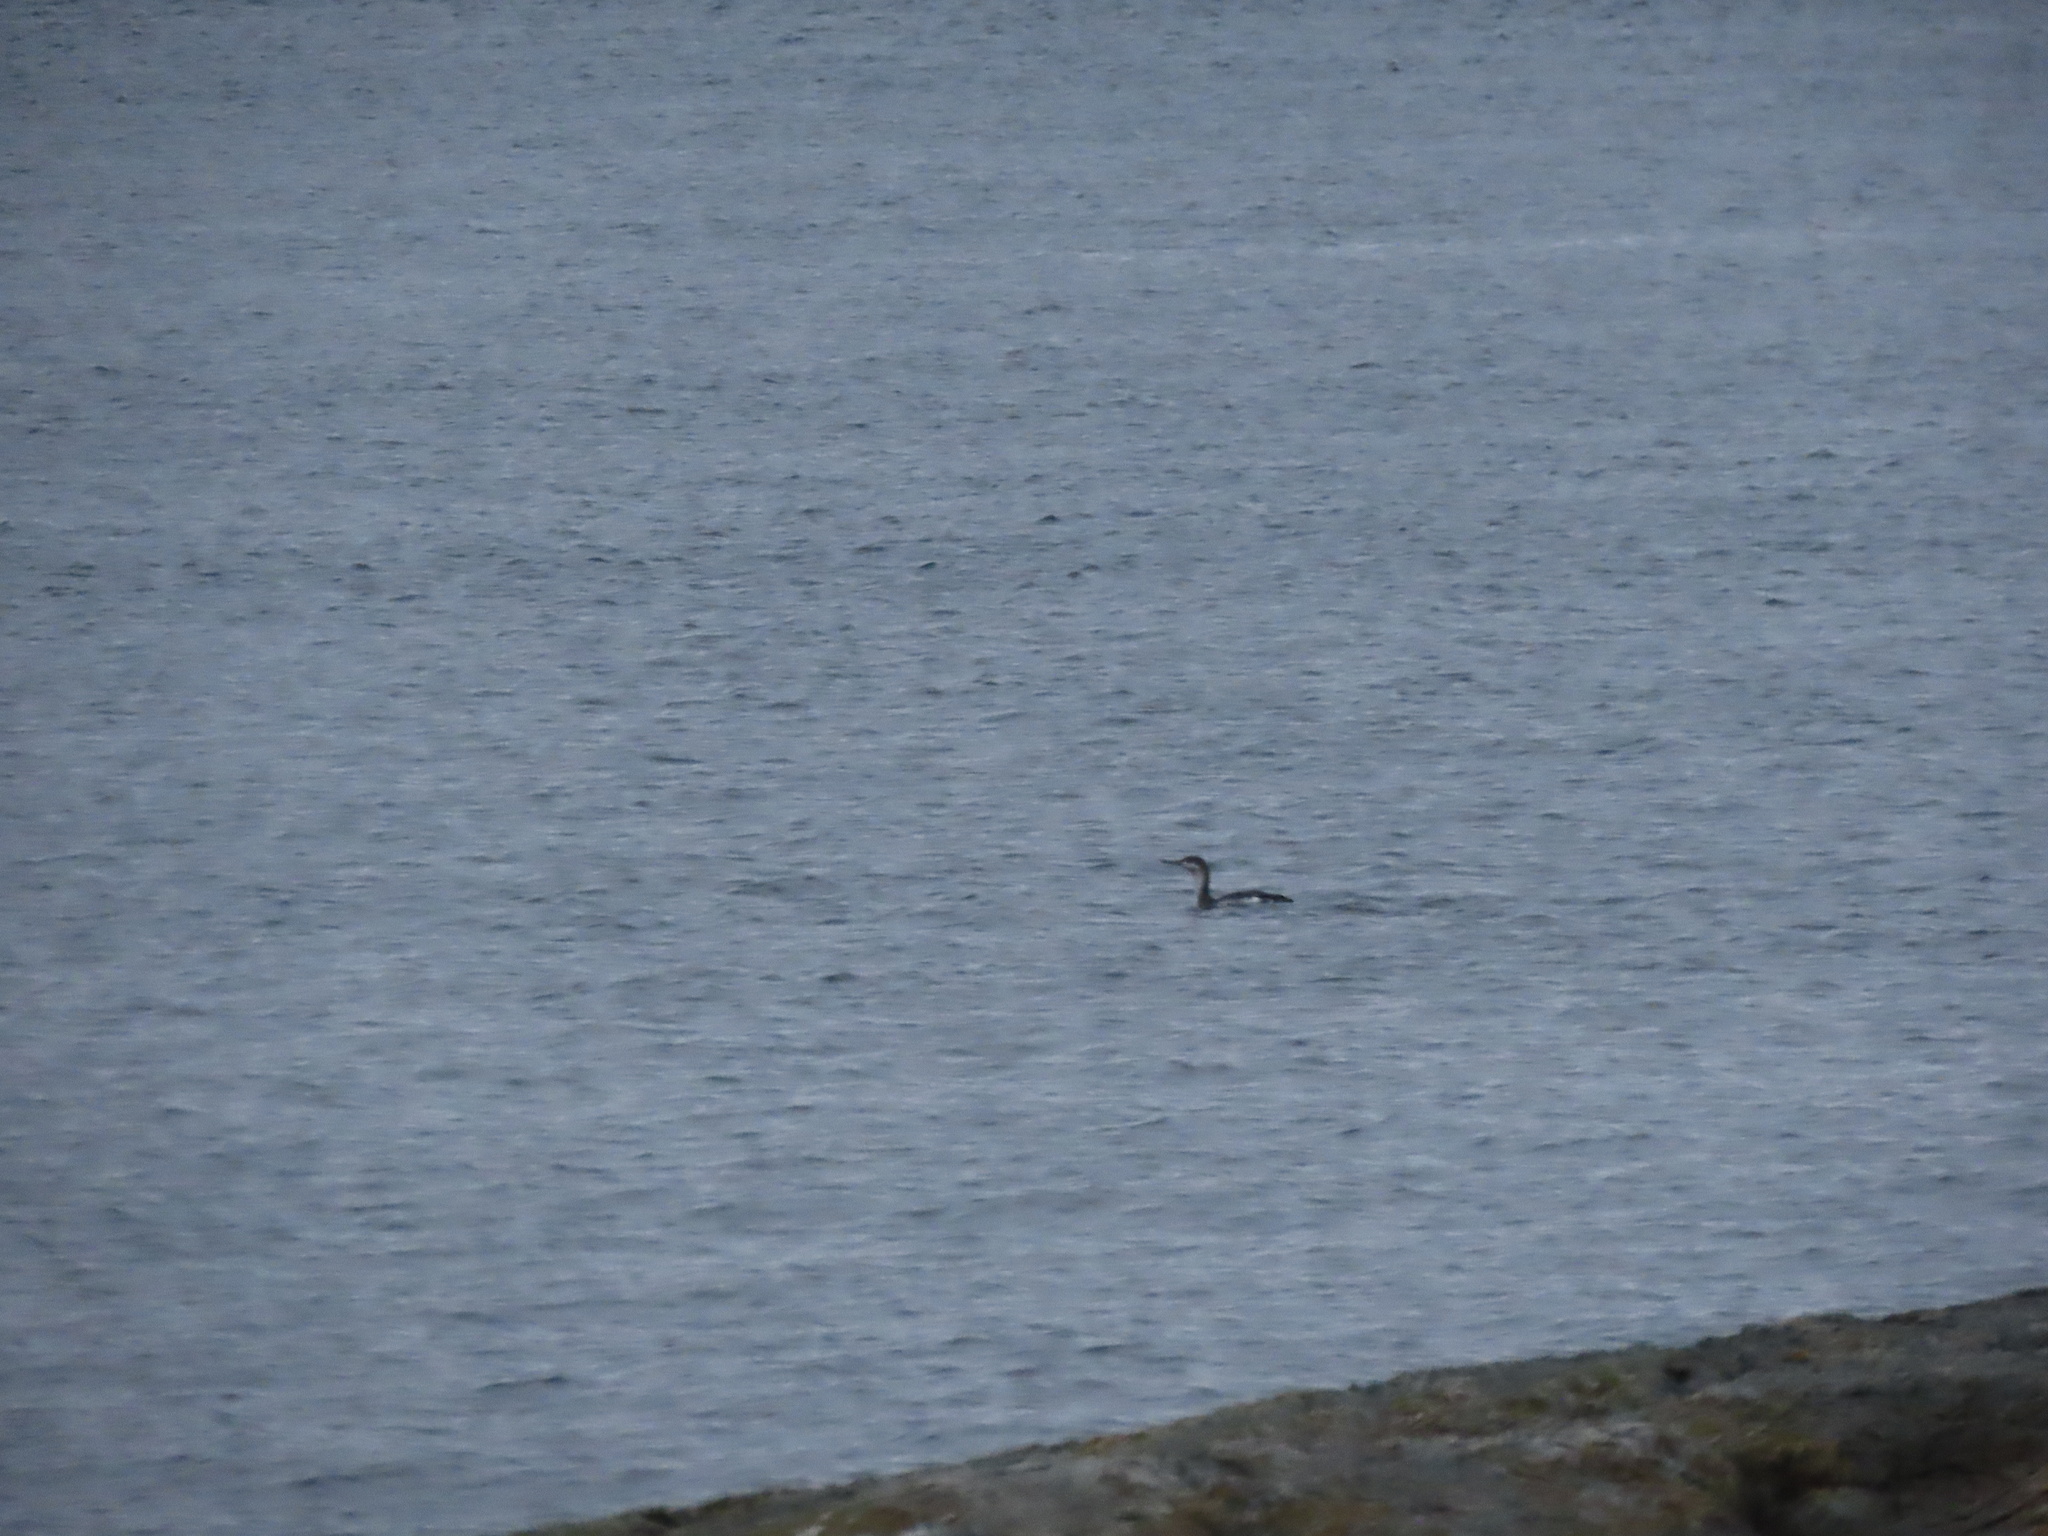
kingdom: Animalia
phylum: Chordata
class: Aves
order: Gaviiformes
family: Gaviidae
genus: Gavia
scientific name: Gavia stellata
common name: Red-throated loon
